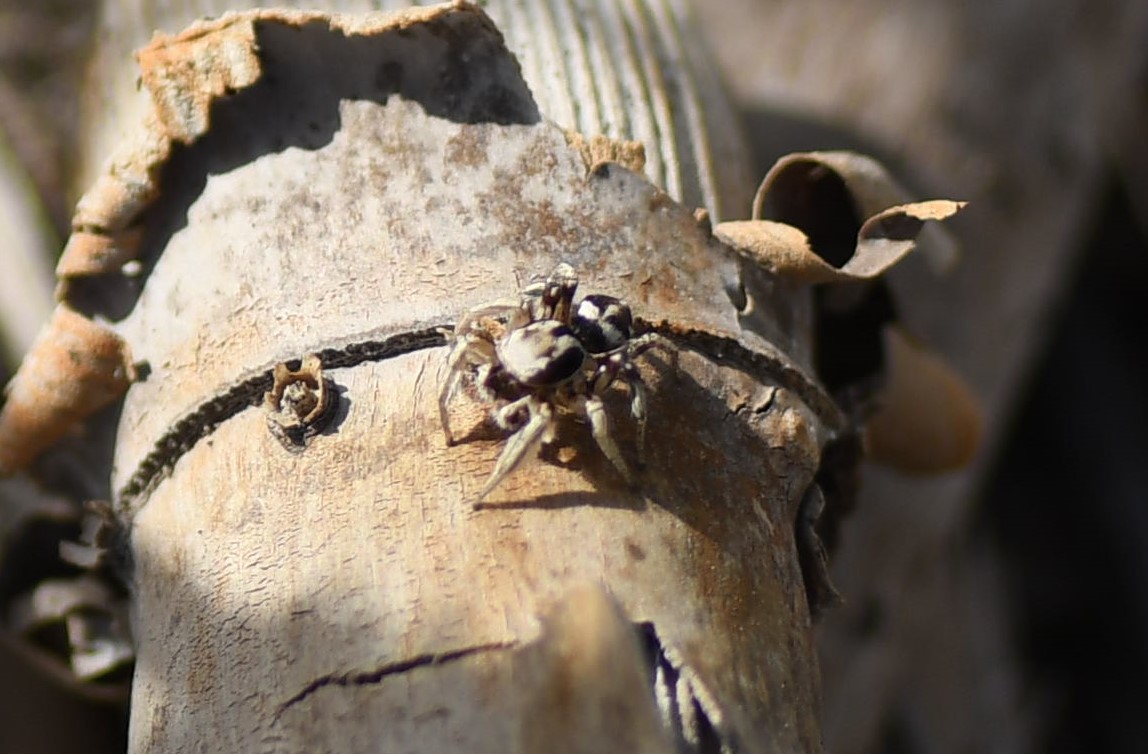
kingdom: Animalia
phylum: Arthropoda
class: Arachnida
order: Araneae
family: Salticidae
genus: Habronattus
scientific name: Habronattus festus
